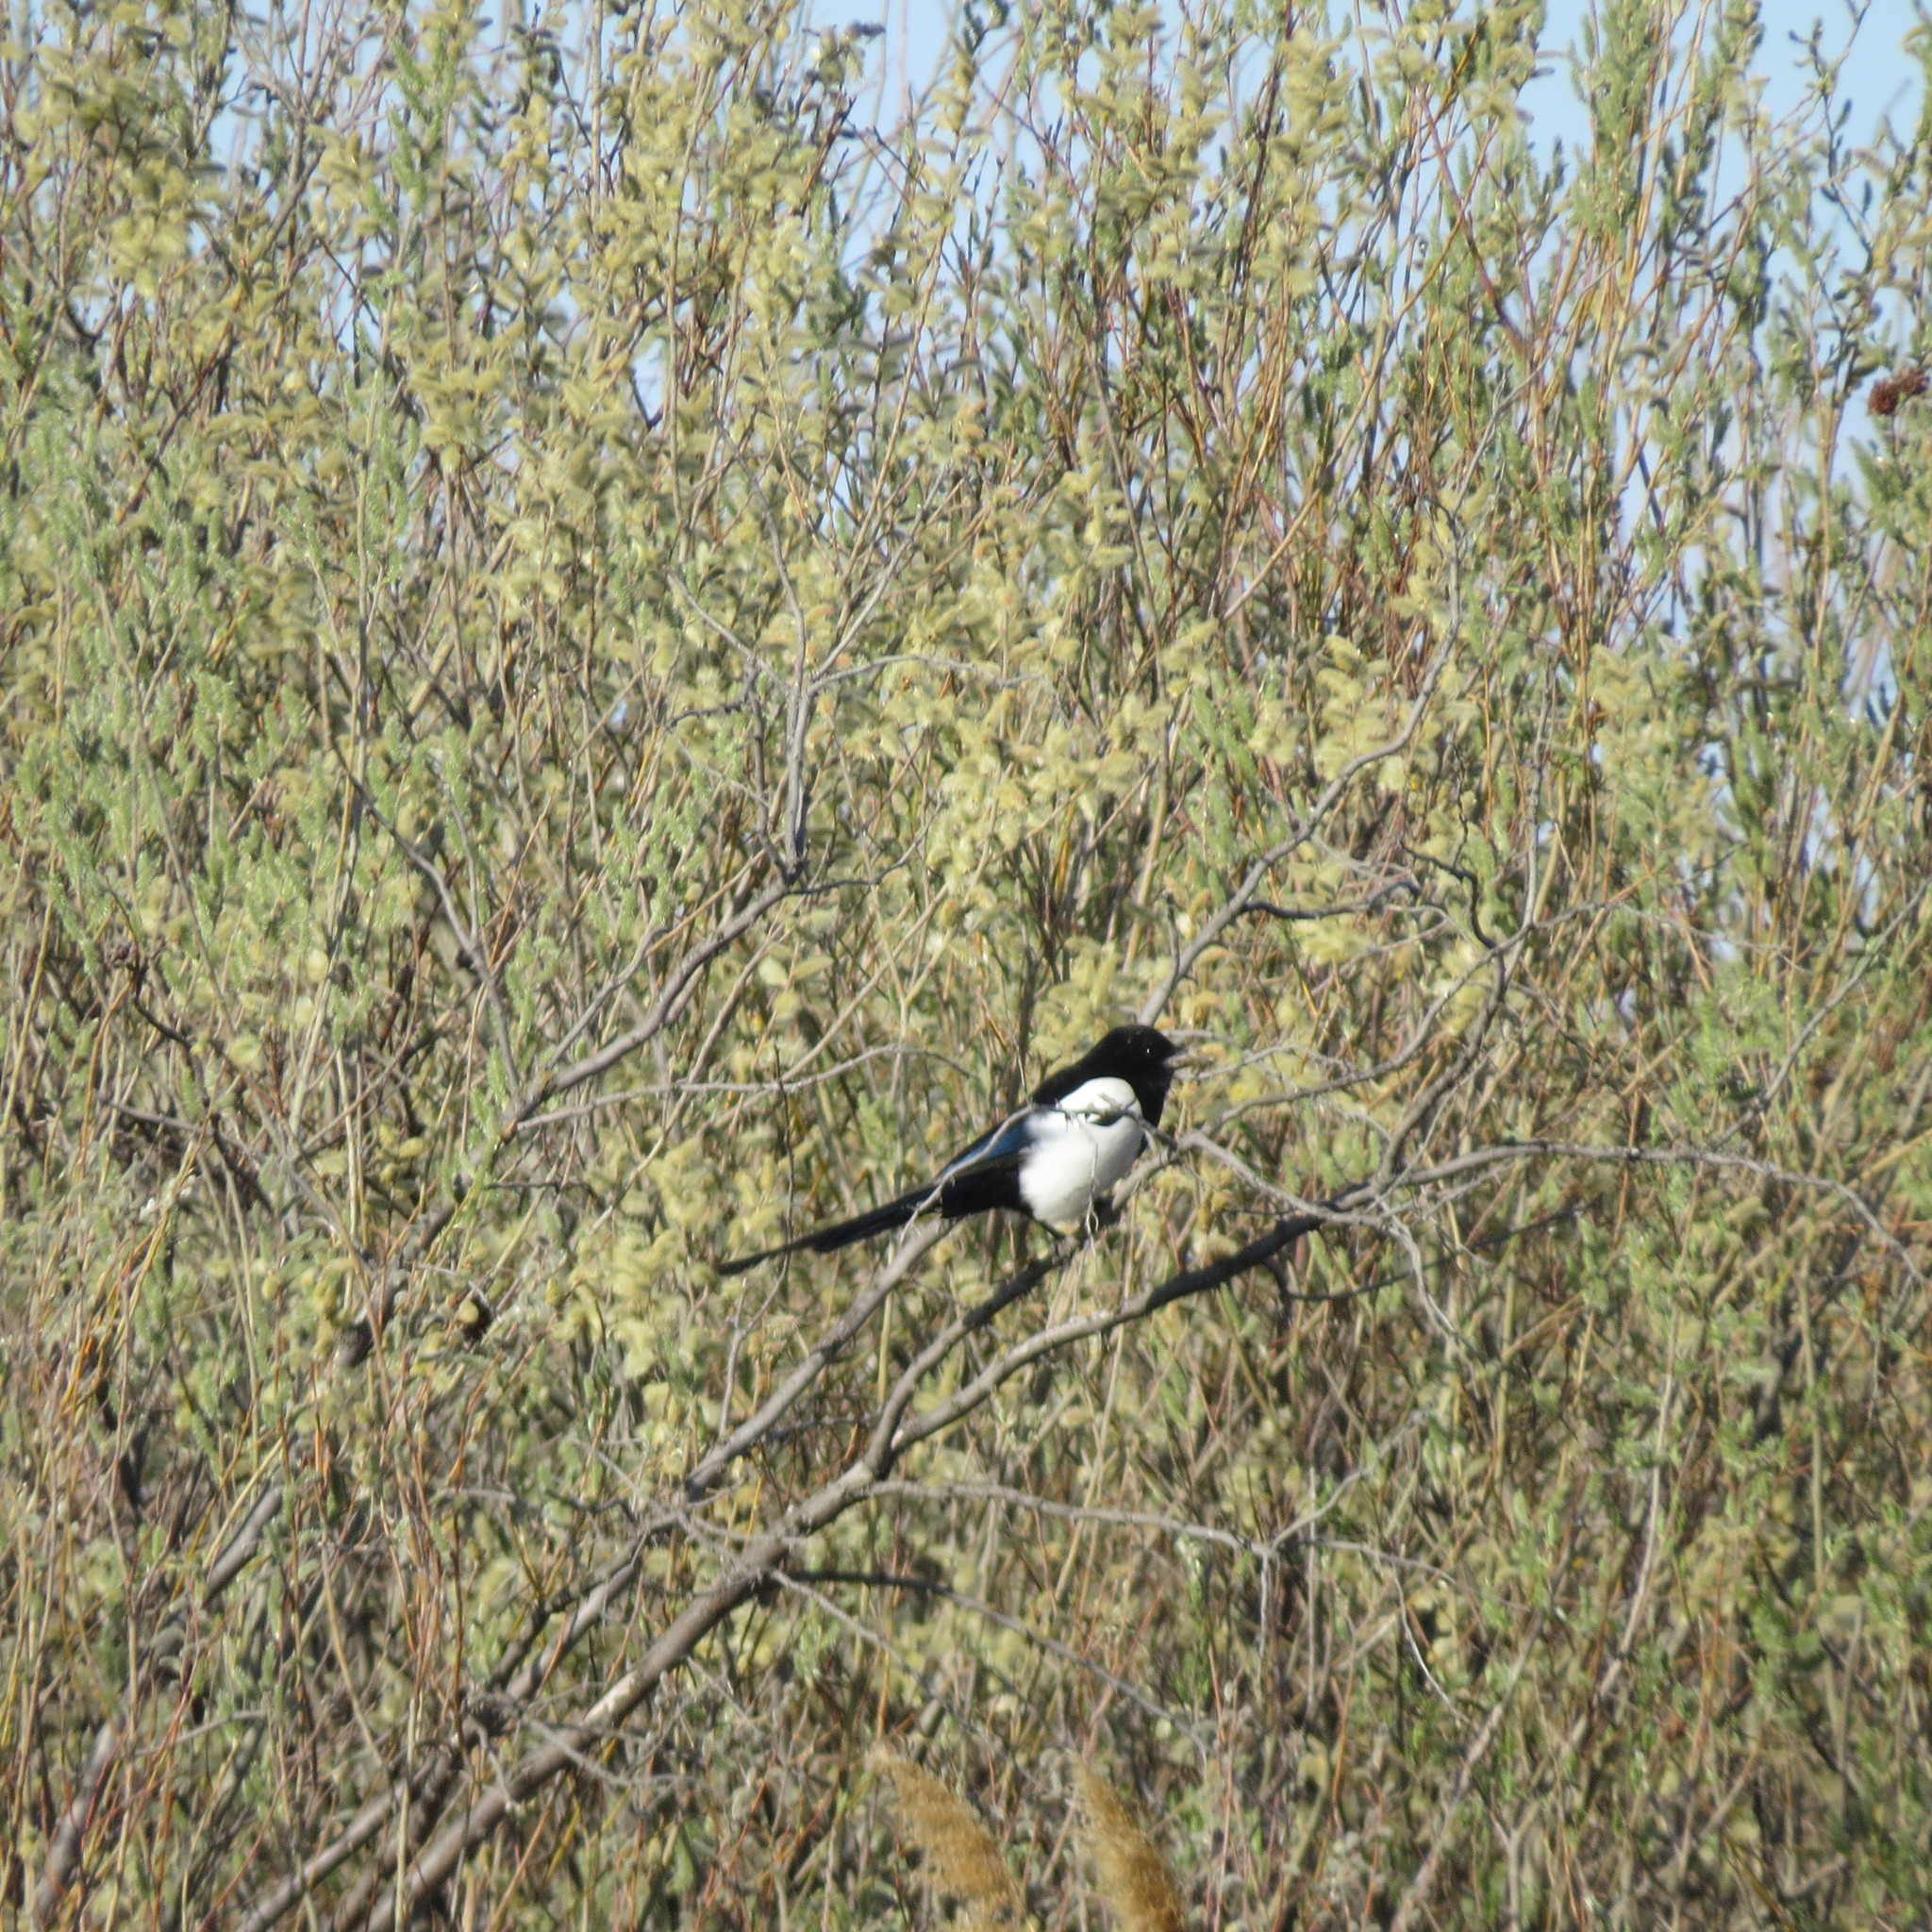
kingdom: Animalia
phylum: Chordata
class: Aves
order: Passeriformes
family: Corvidae
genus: Pica
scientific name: Pica pica
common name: Eurasian magpie
